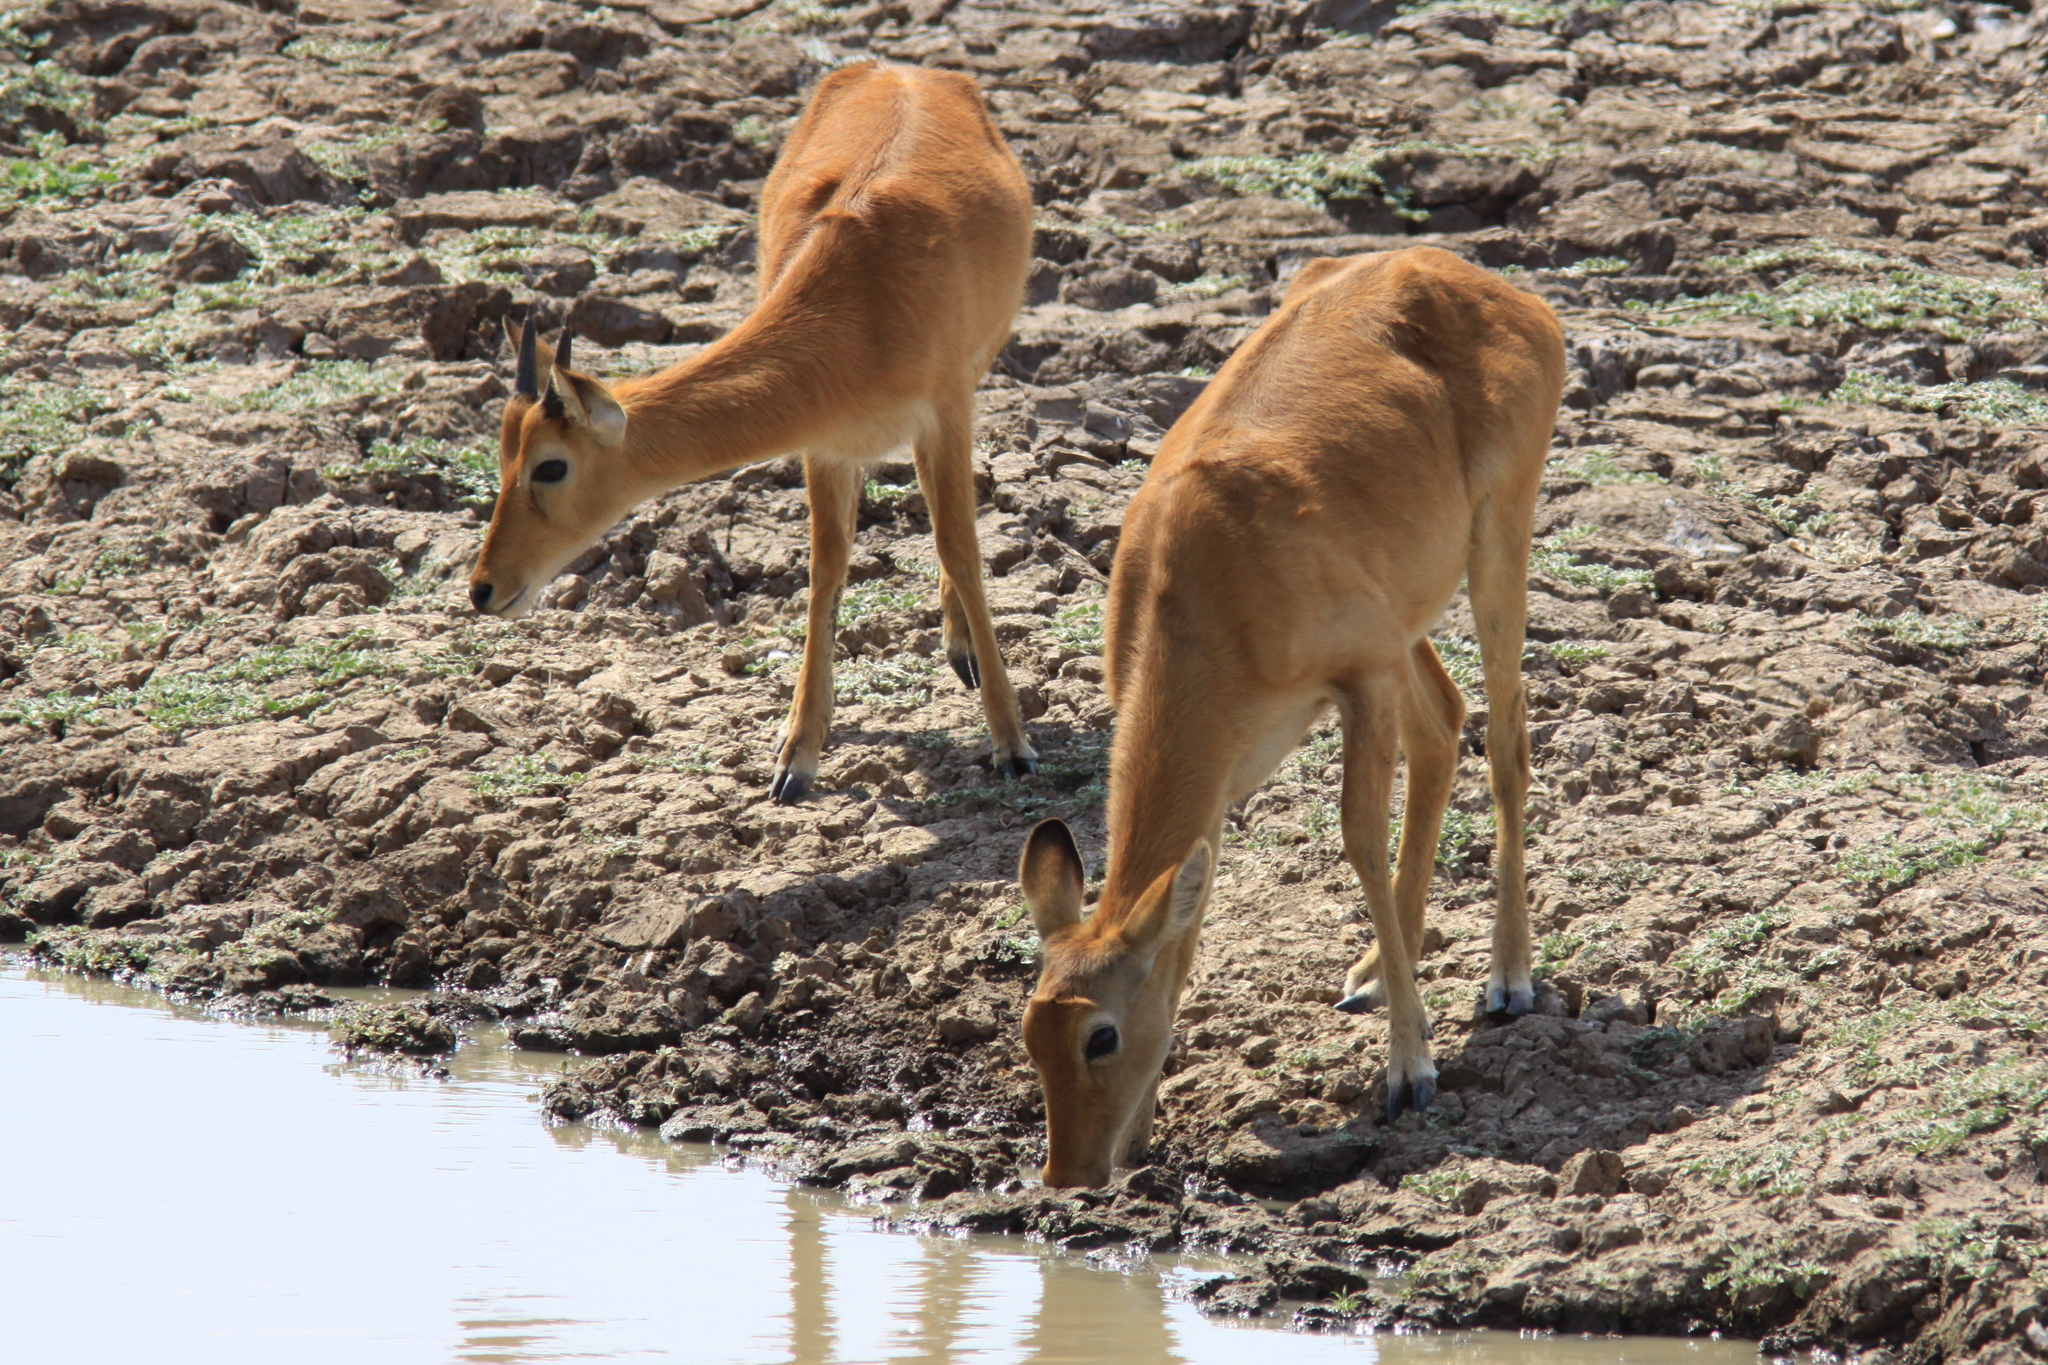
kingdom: Animalia
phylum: Chordata
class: Mammalia
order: Artiodactyla
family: Bovidae
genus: Kobus
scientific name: Kobus vardonii
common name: Puku
